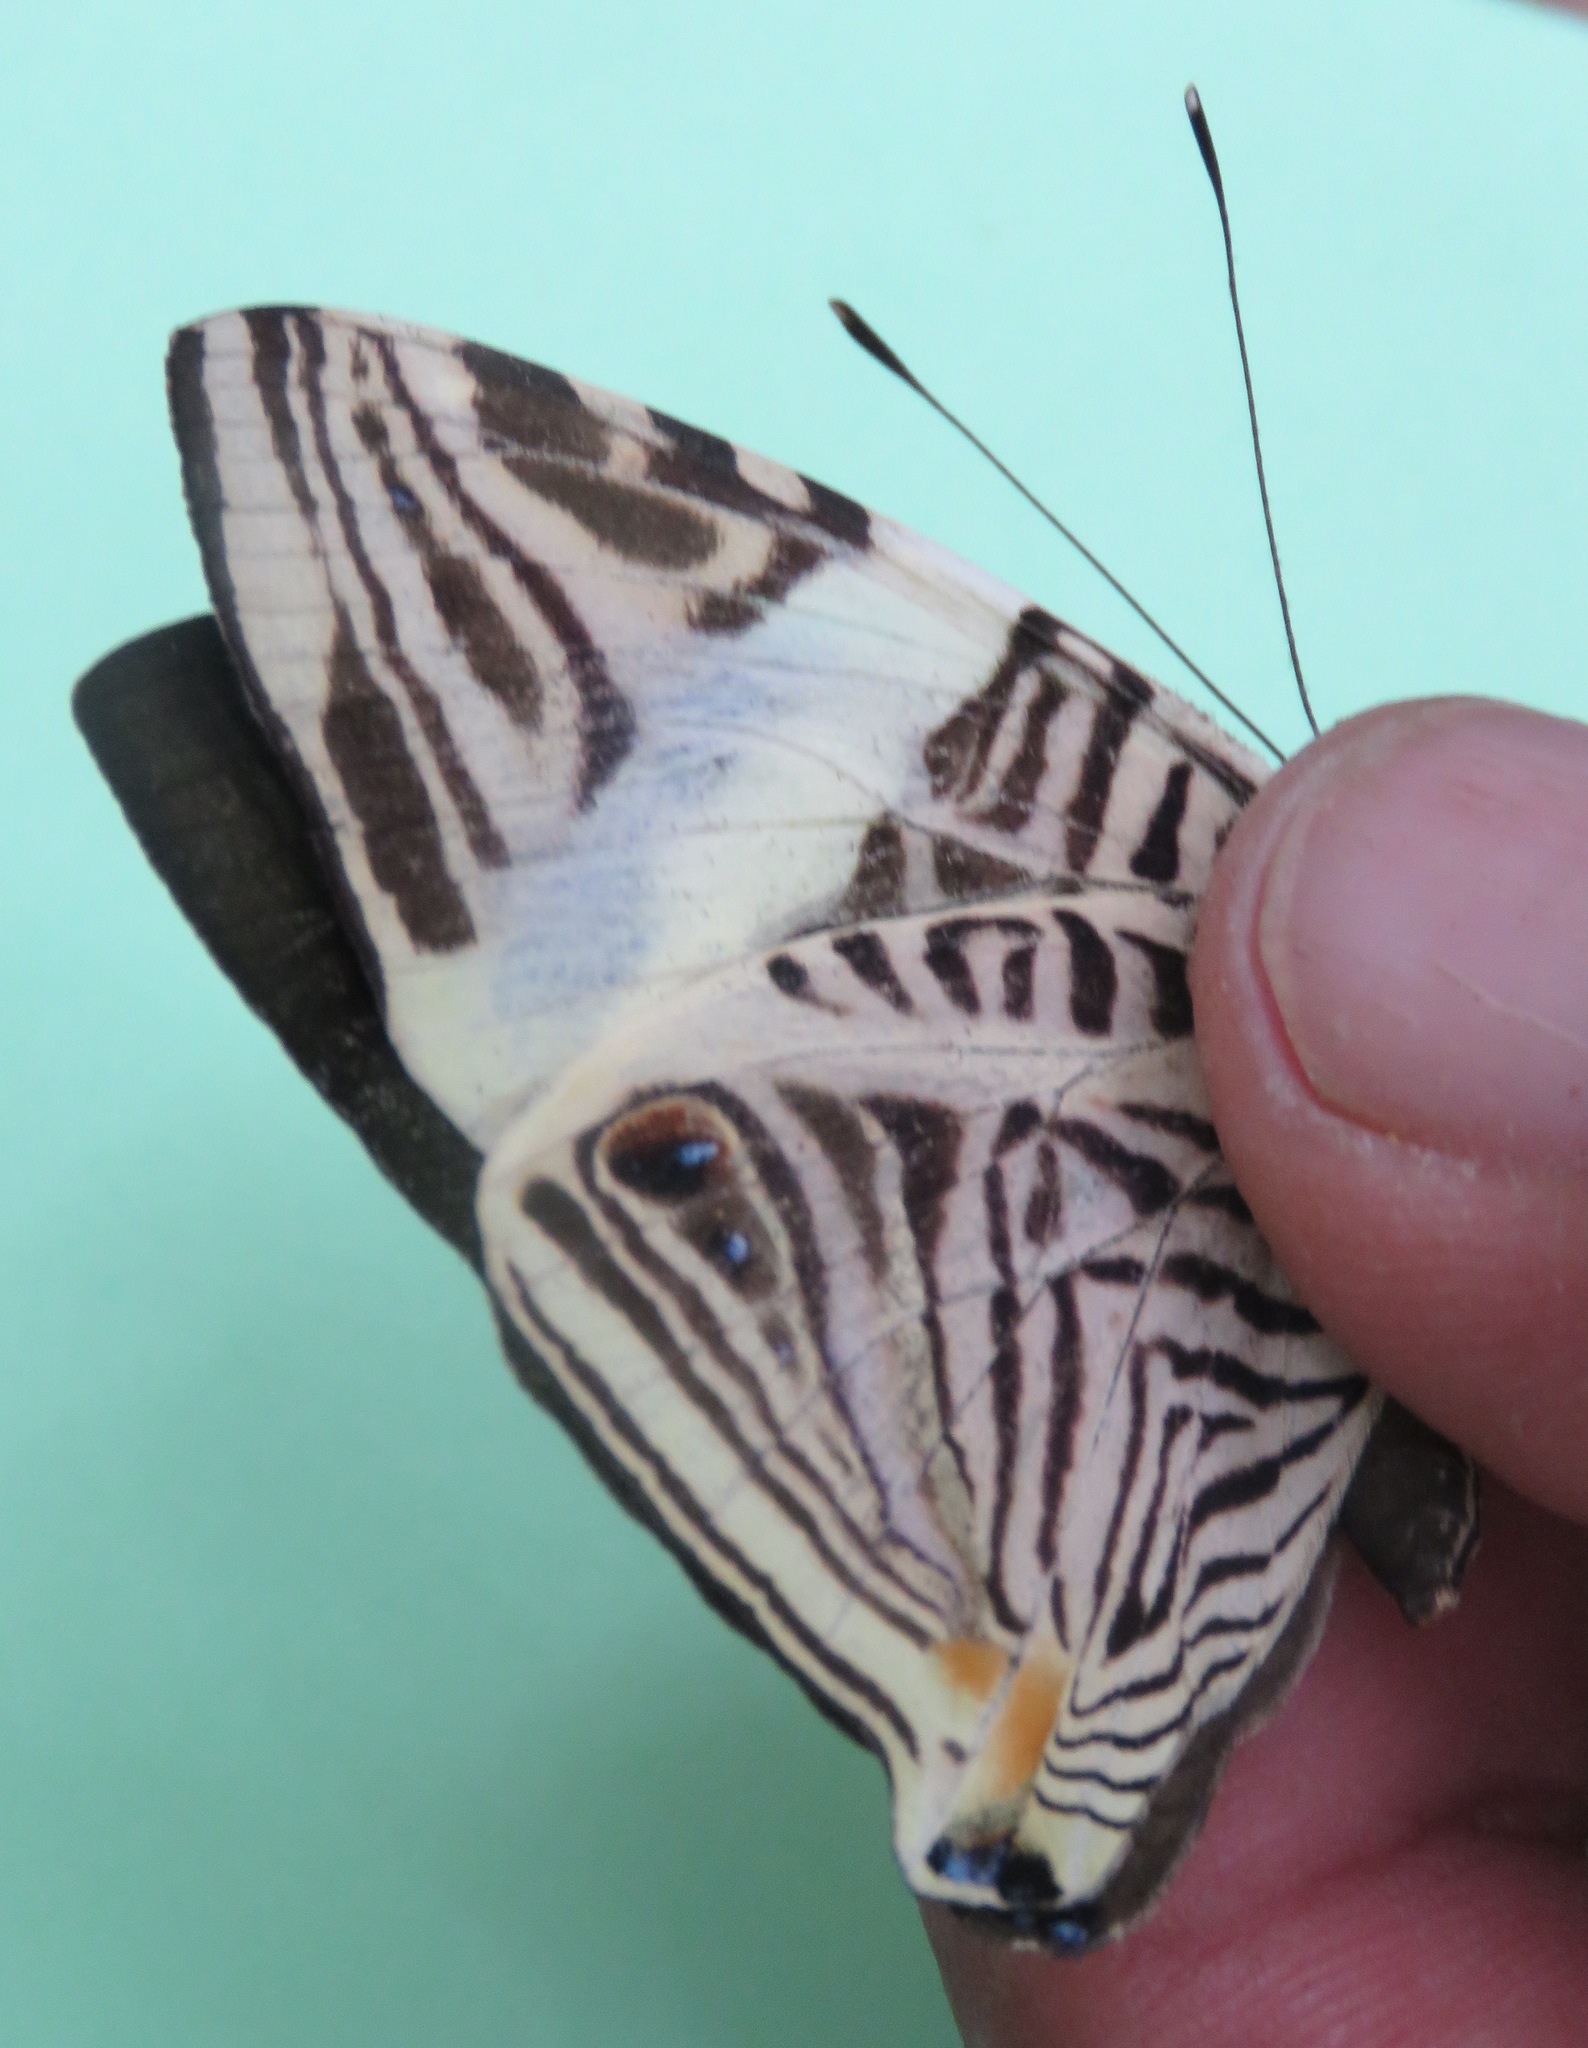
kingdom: Animalia
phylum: Arthropoda
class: Insecta
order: Lepidoptera
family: Nymphalidae
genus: Colobura
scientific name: Colobura dirce
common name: Dirce beauty
